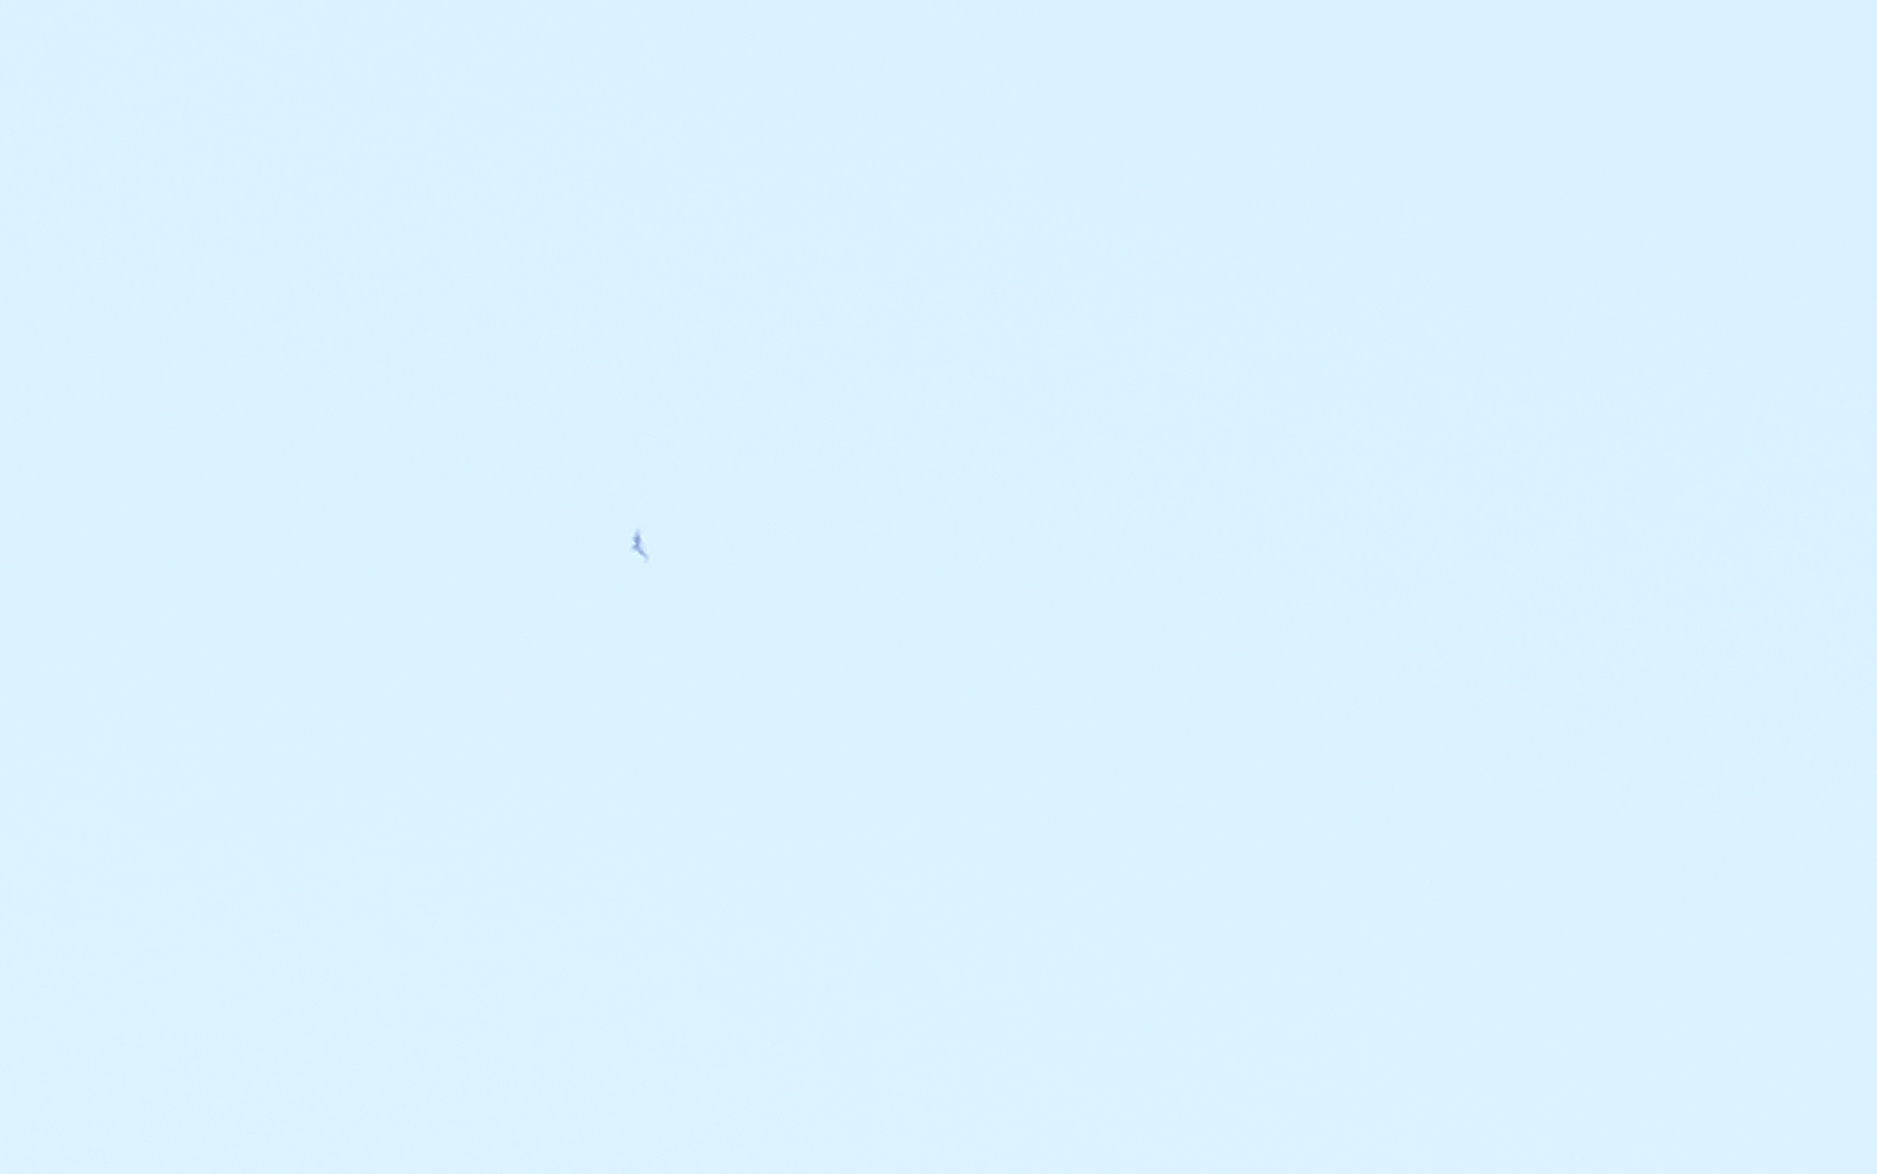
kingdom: Animalia
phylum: Chordata
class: Aves
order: Accipitriformes
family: Accipitridae
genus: Spizaetus
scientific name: Spizaetus isidori
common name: Black-and-chestnut eagle
